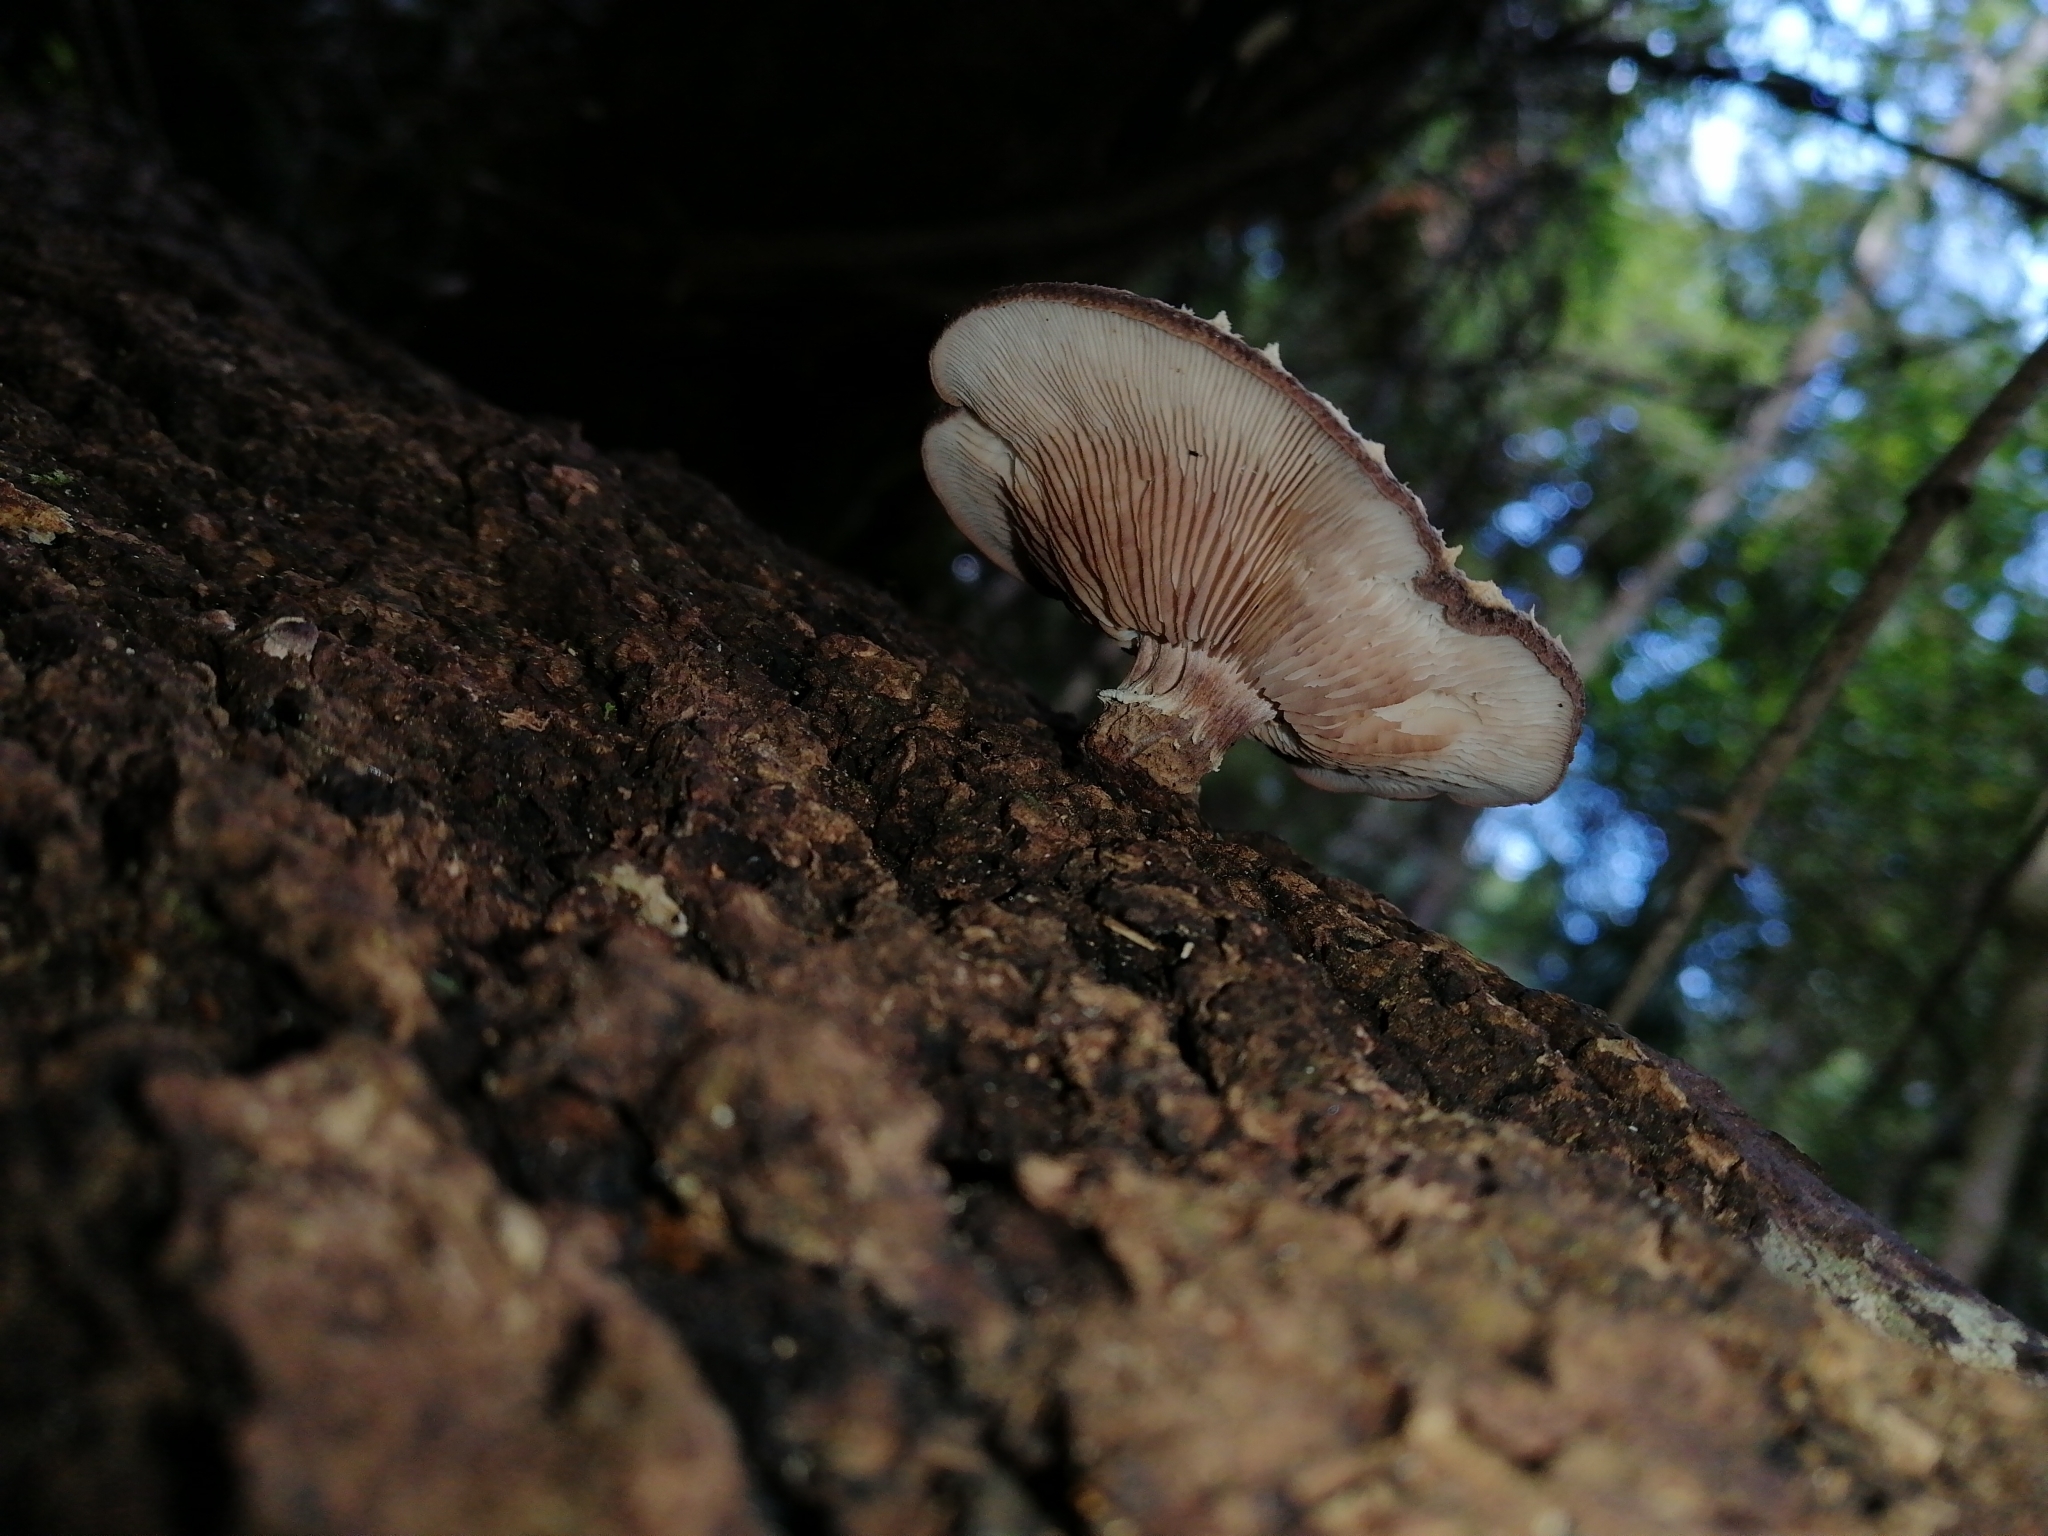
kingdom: Fungi
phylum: Basidiomycota
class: Agaricomycetes
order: Agaricales
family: Omphalotaceae
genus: Lentinula
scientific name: Lentinula novae-zelandiae
